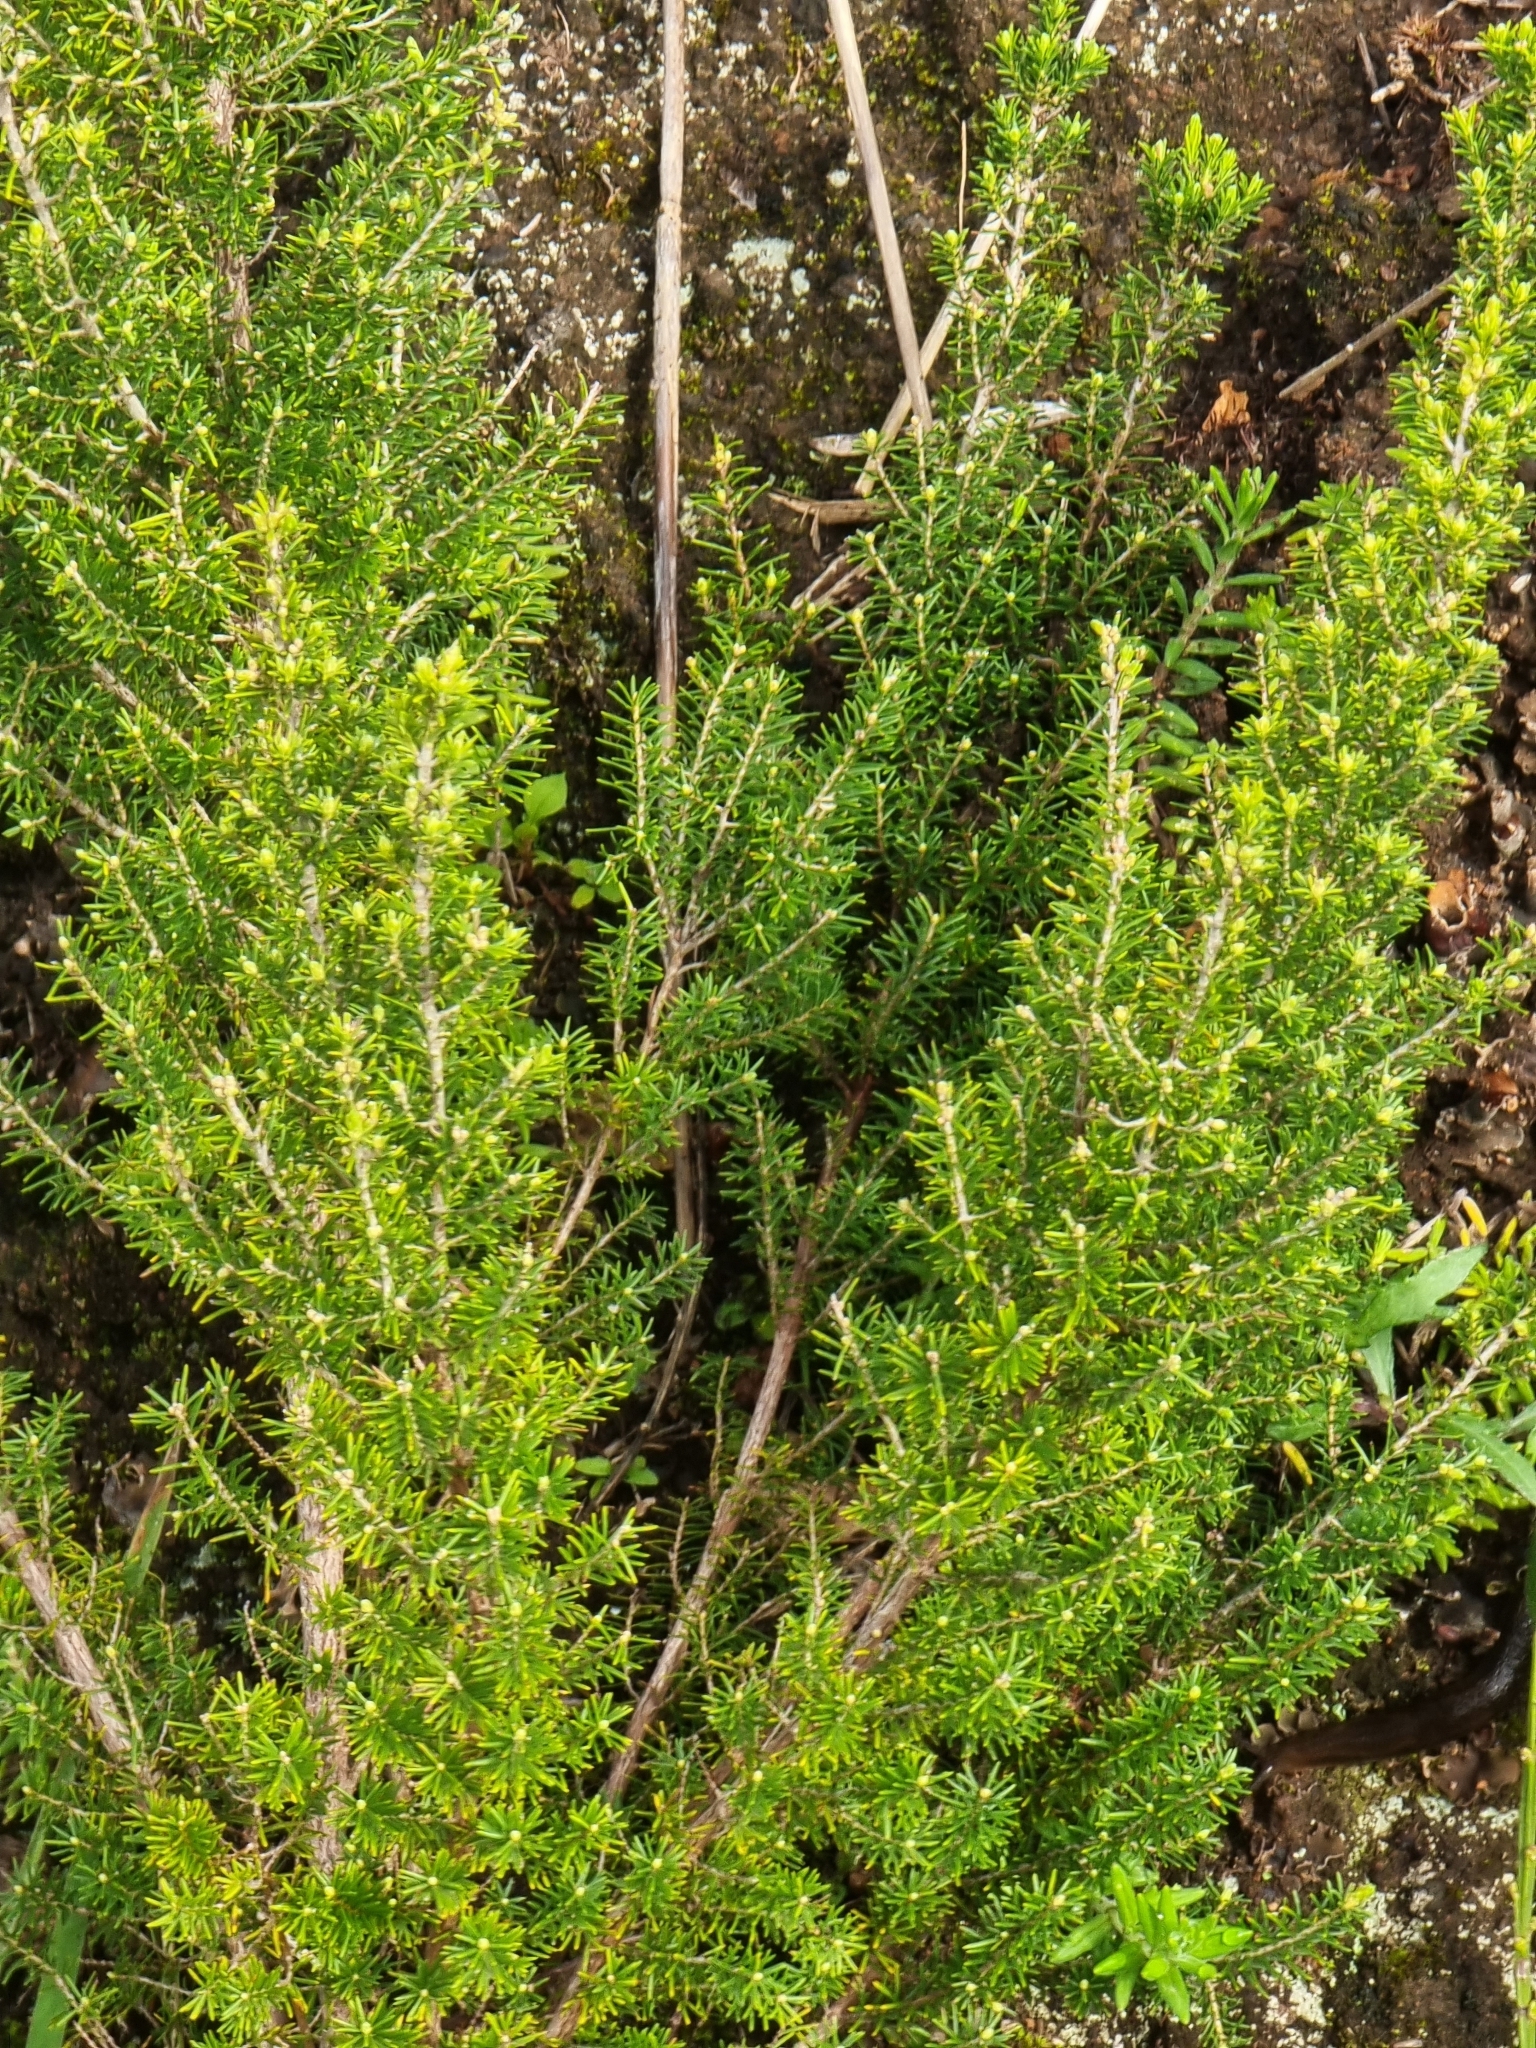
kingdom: Plantae
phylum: Tracheophyta
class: Magnoliopsida
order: Ericales
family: Ericaceae
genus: Erica
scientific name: Erica canariensis
